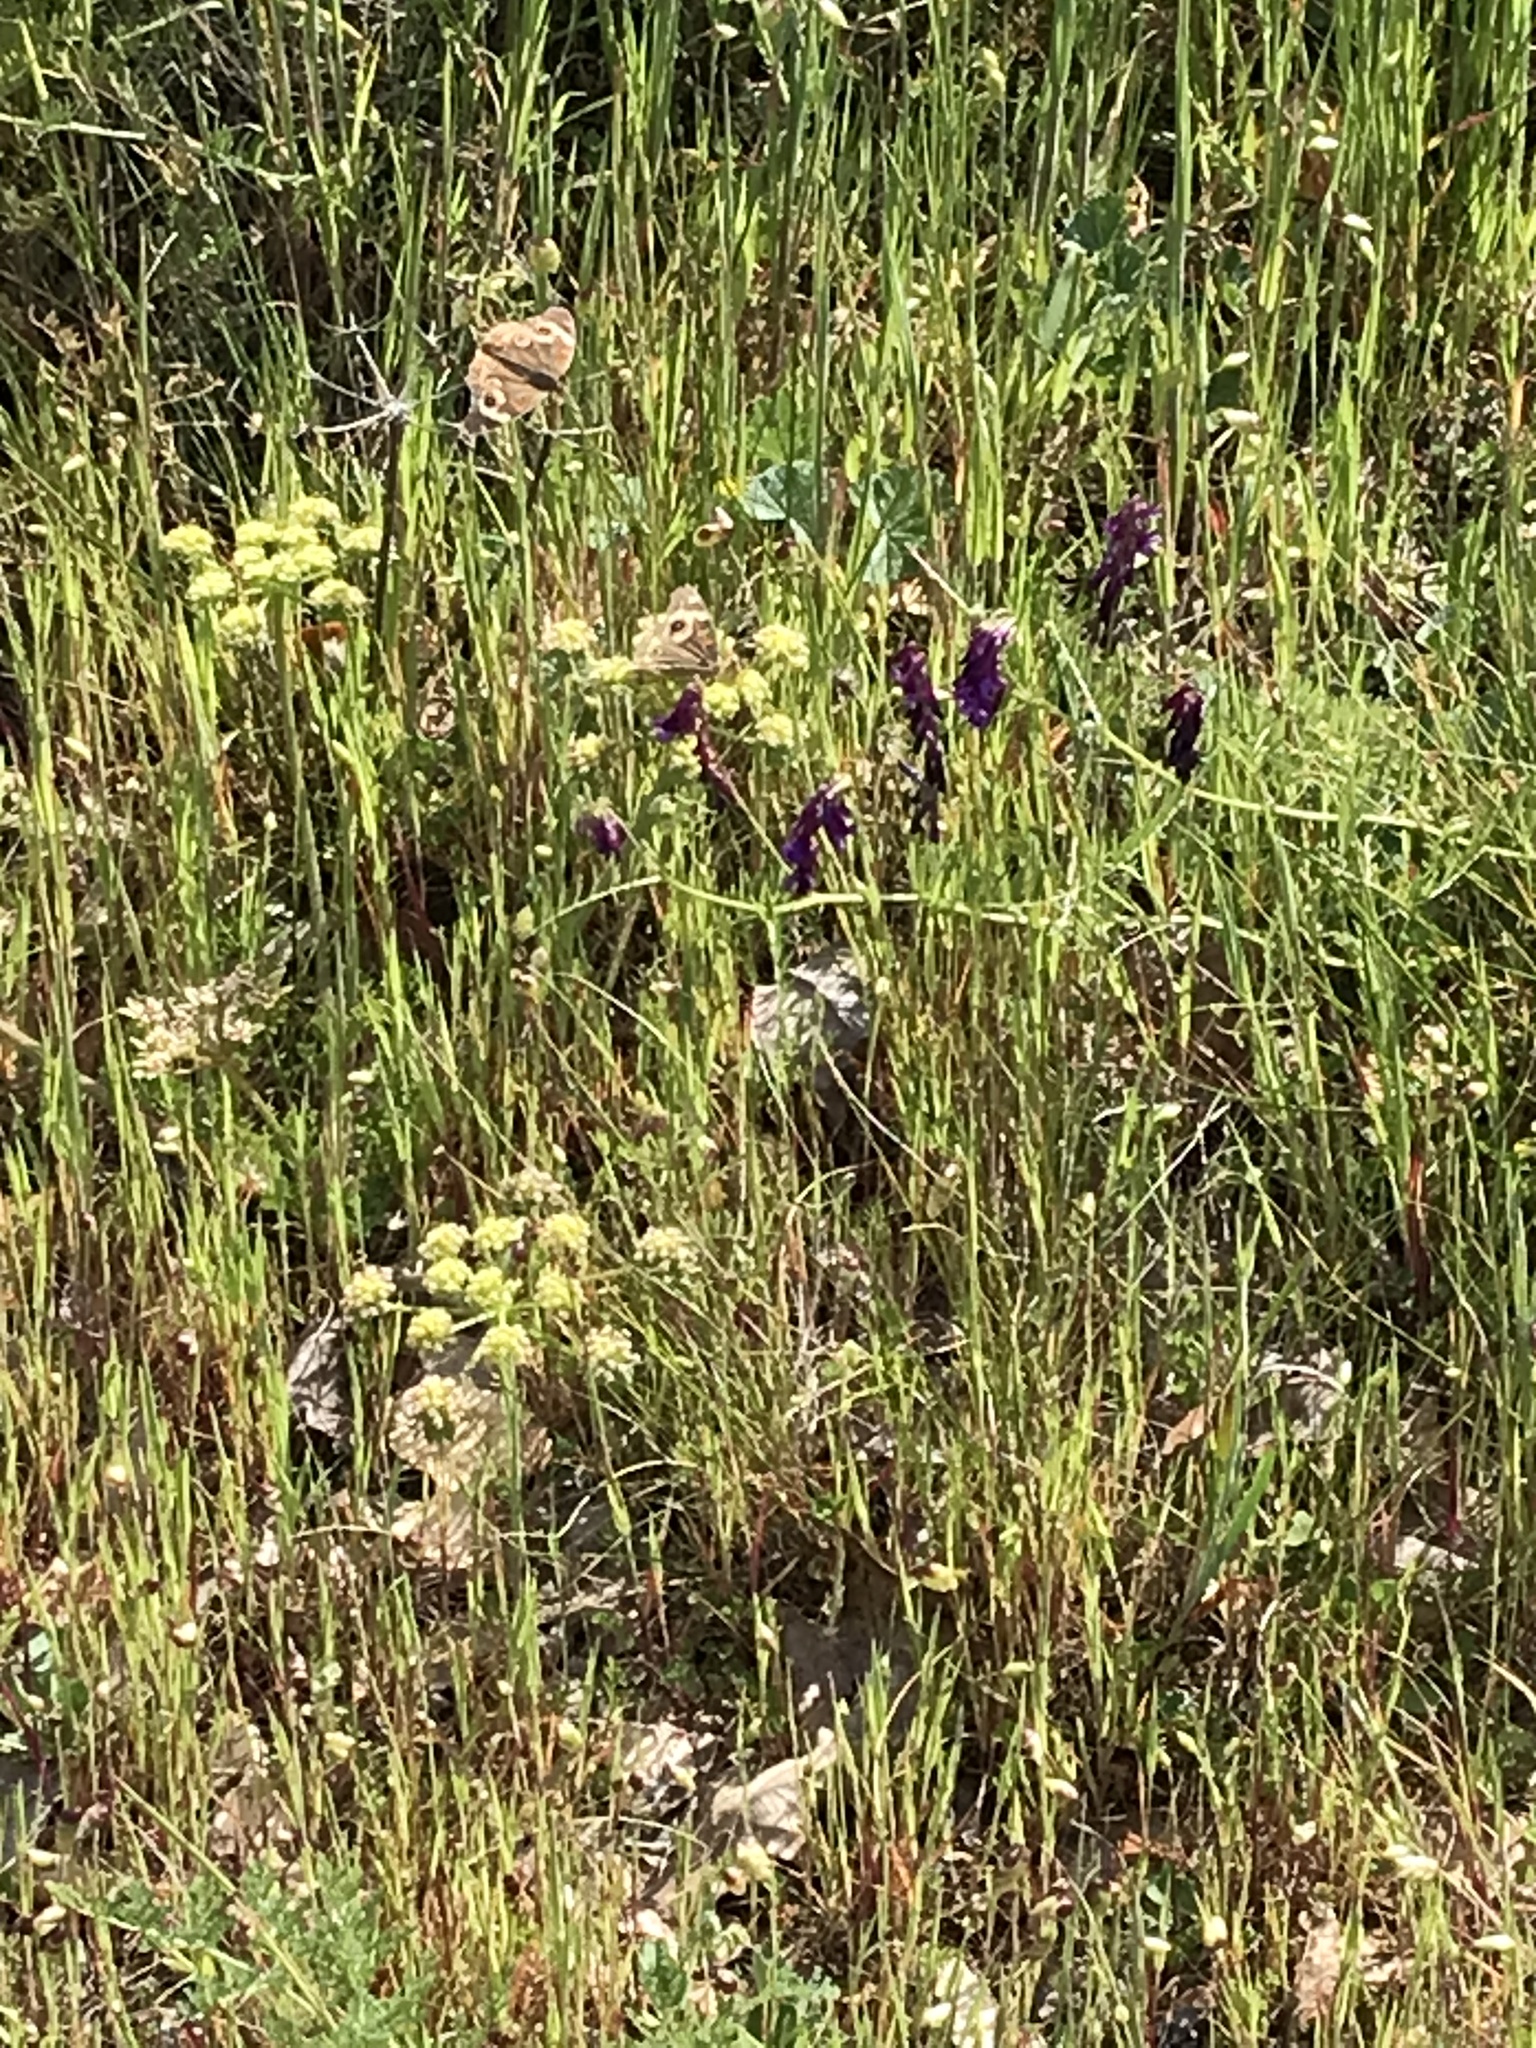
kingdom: Animalia
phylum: Arthropoda
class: Insecta
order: Lepidoptera
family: Nymphalidae
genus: Junonia
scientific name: Junonia grisea
